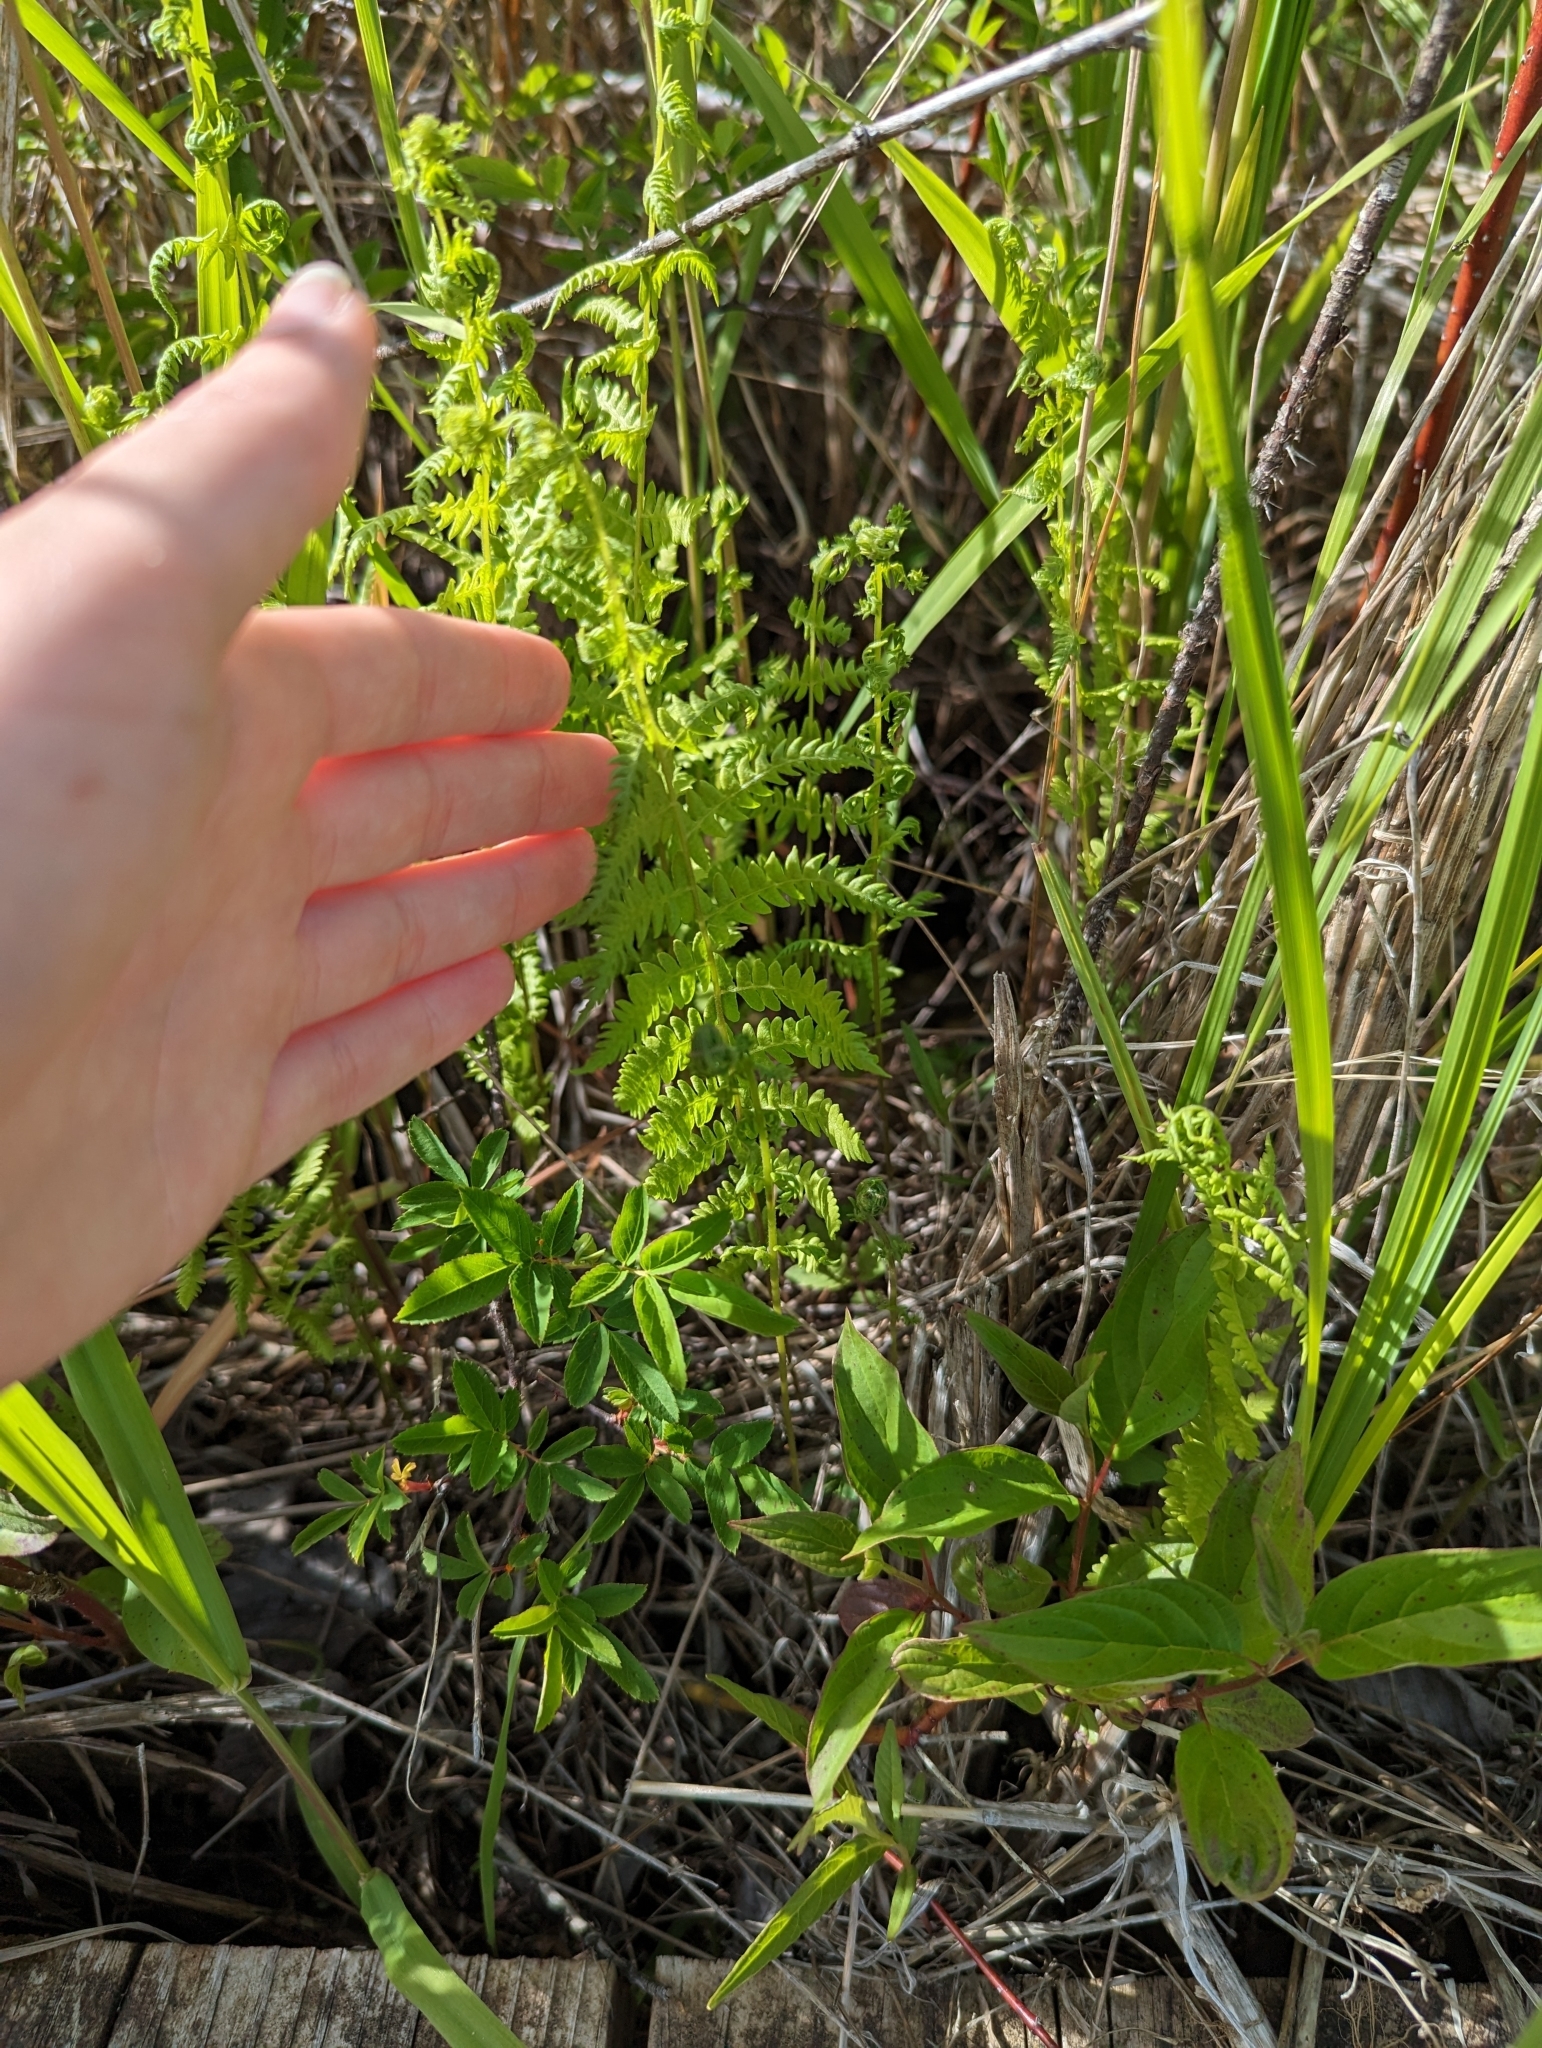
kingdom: Plantae
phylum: Tracheophyta
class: Polypodiopsida
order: Polypodiales
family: Thelypteridaceae
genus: Thelypteris
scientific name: Thelypteris palustris
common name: Marsh fern
